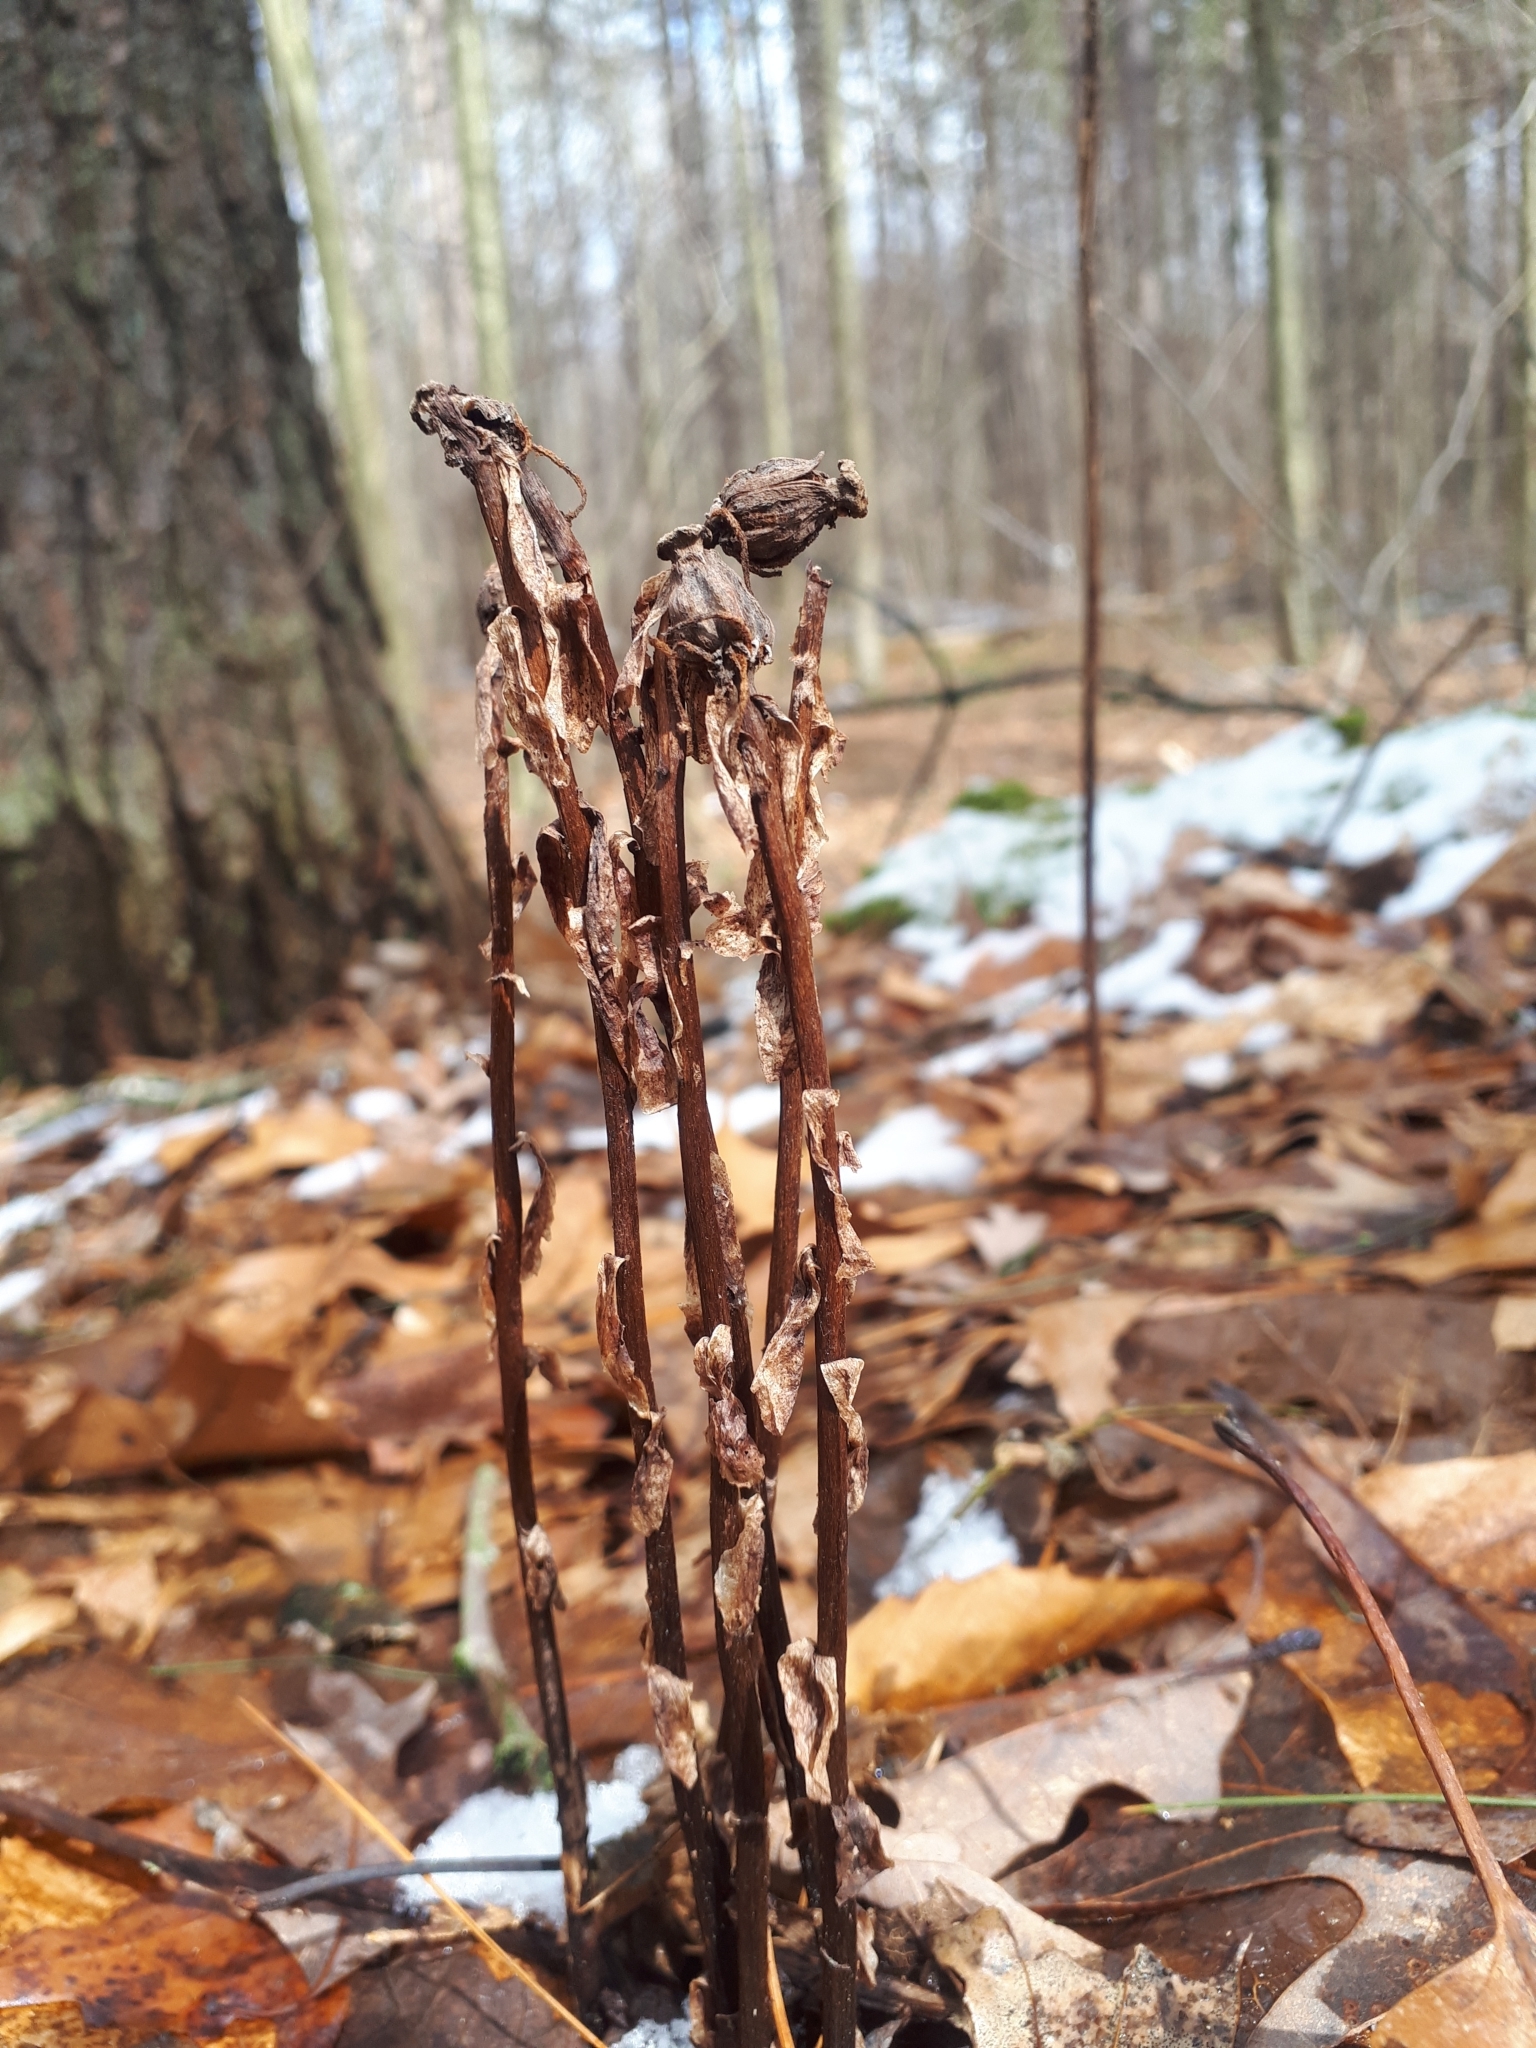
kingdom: Plantae
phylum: Tracheophyta
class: Magnoliopsida
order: Ericales
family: Ericaceae
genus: Monotropa
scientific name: Monotropa uniflora
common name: Convulsion root
